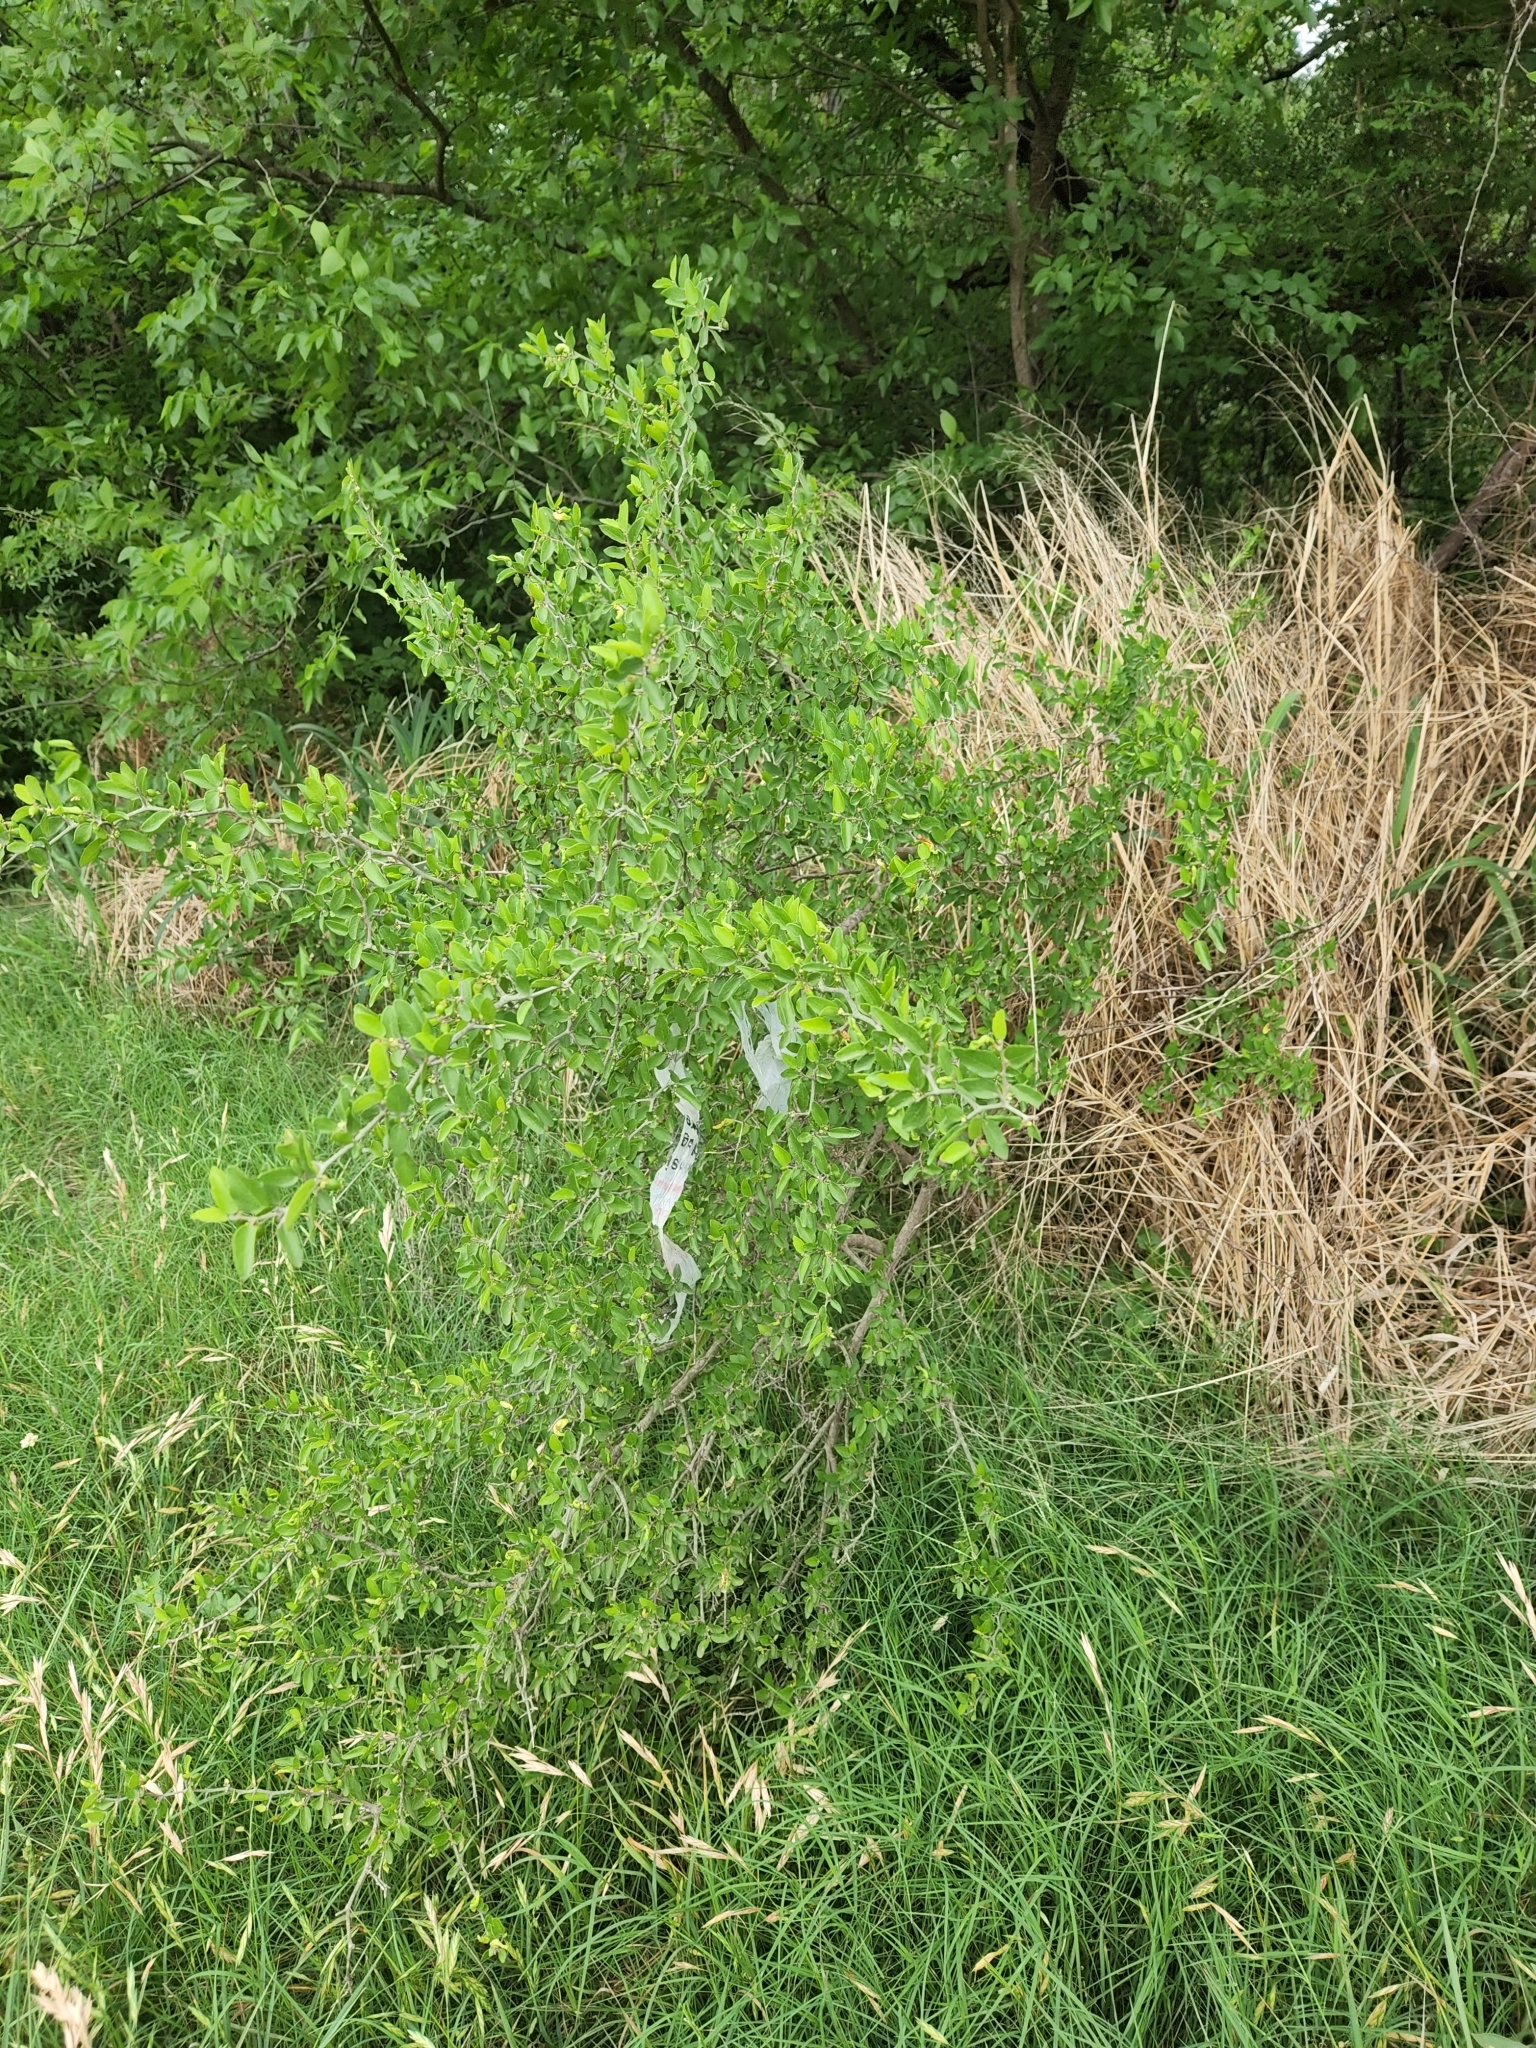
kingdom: Plantae
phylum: Tracheophyta
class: Magnoliopsida
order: Rosales
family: Cannabaceae
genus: Celtis
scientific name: Celtis pallida
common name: Desert hackberry
